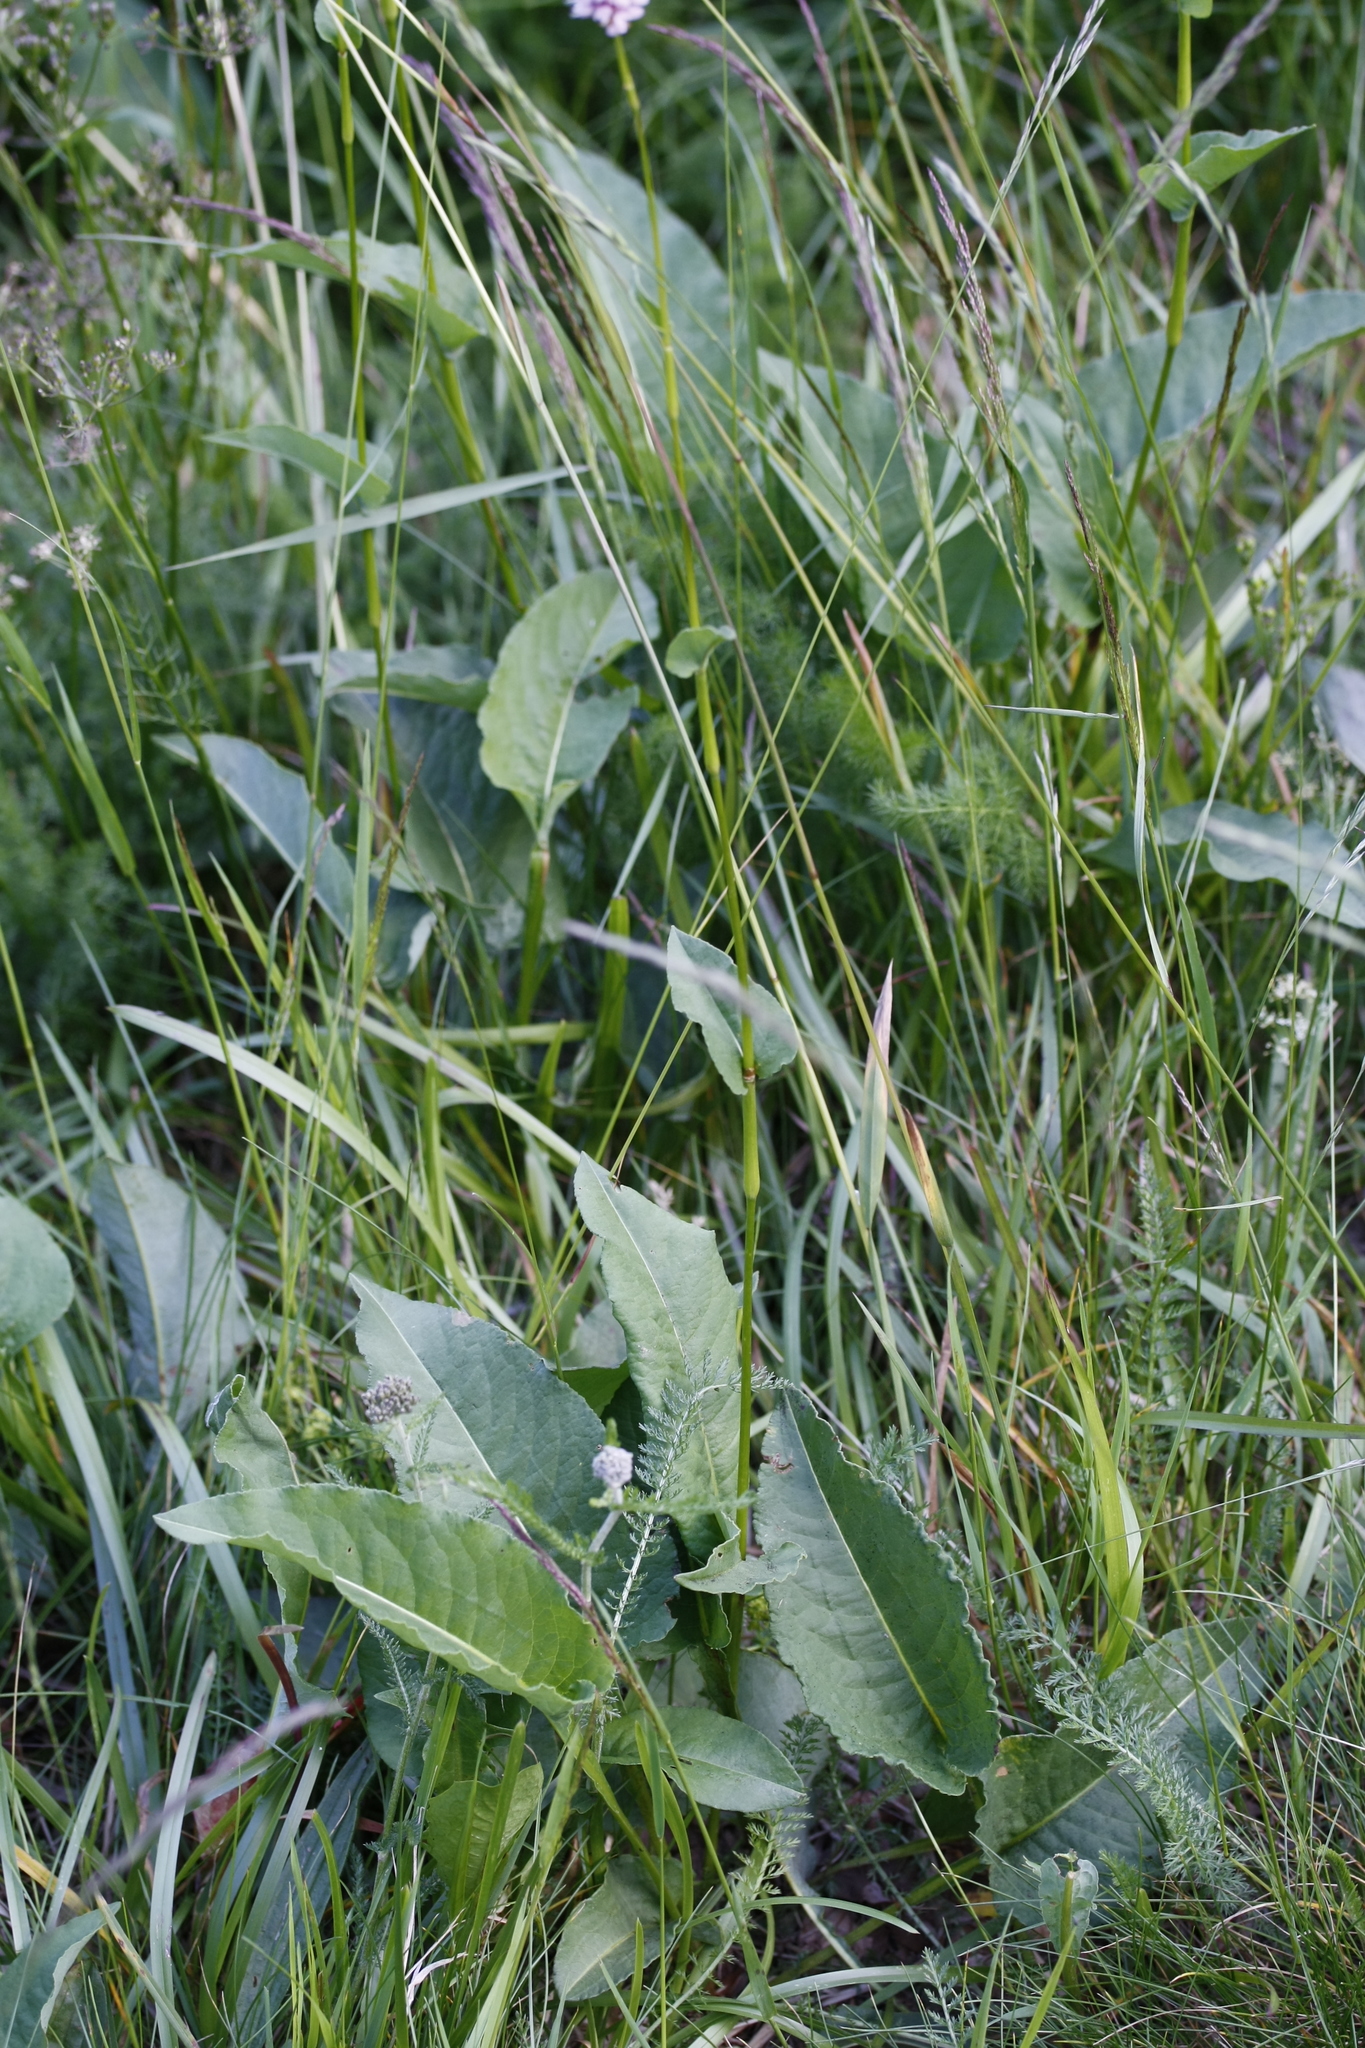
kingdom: Plantae
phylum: Tracheophyta
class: Magnoliopsida
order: Caryophyllales
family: Polygonaceae
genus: Bistorta
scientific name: Bistorta officinalis
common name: Common bistort
